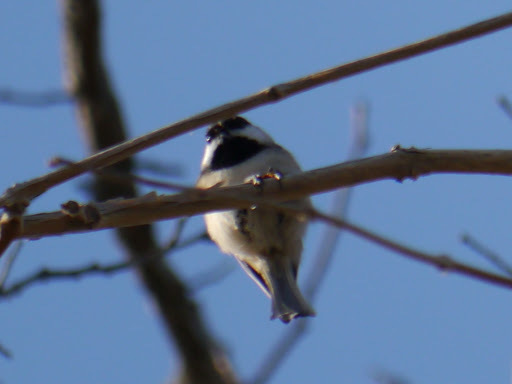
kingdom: Animalia
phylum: Chordata
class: Aves
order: Passeriformes
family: Paridae
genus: Poecile
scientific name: Poecile carolinensis
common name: Carolina chickadee
